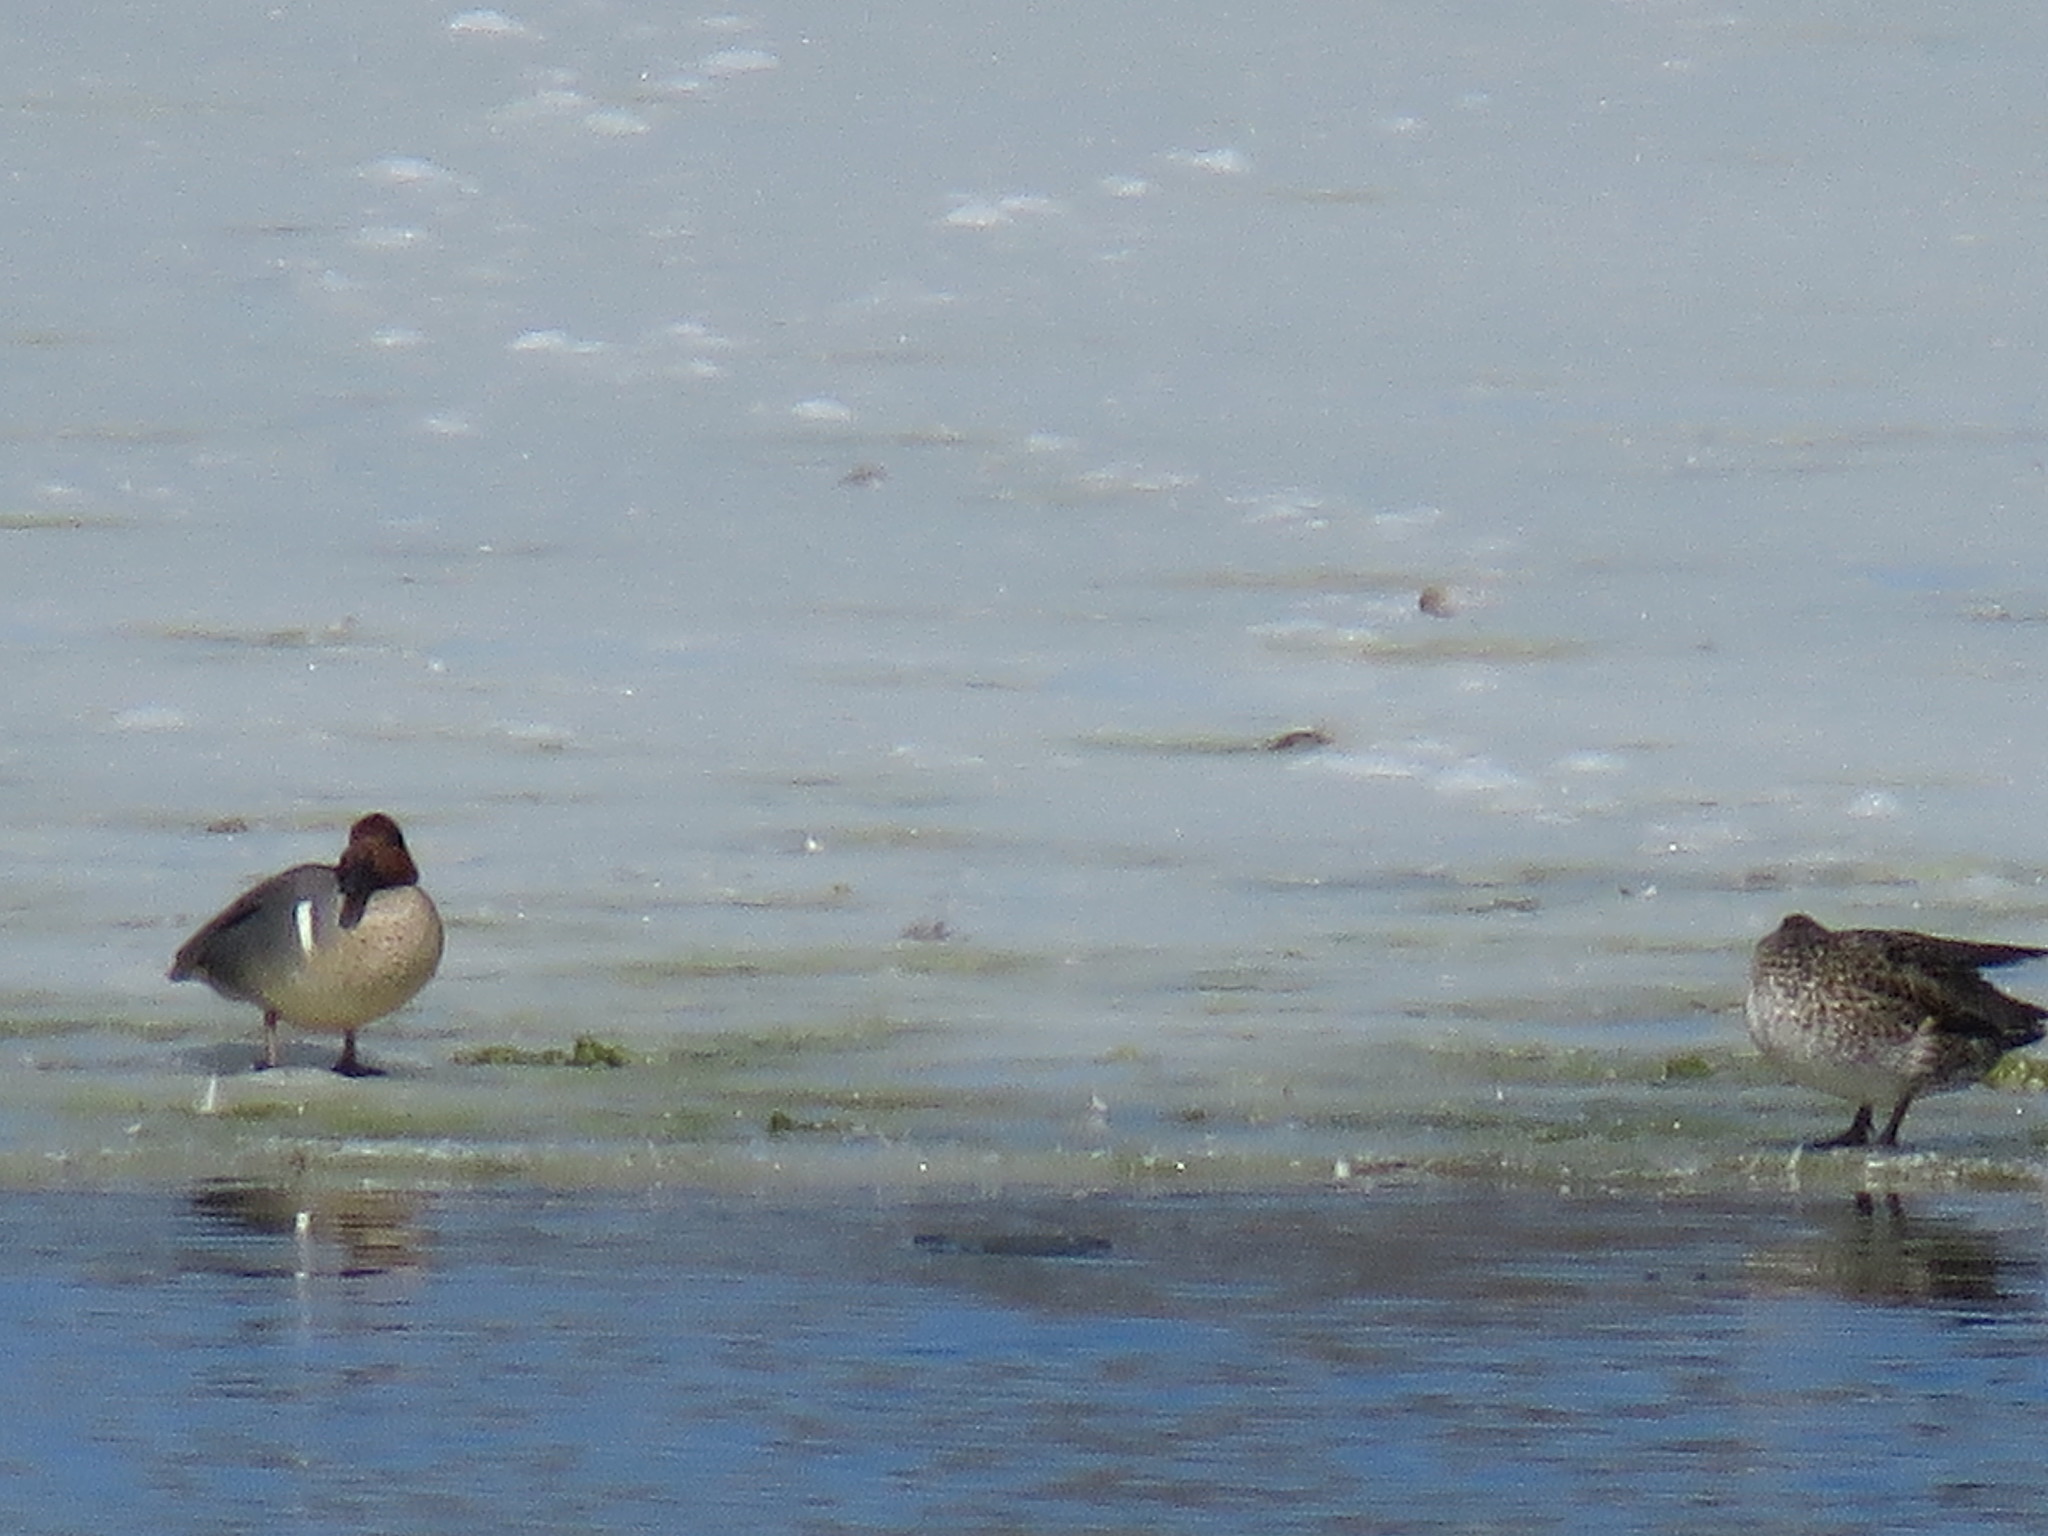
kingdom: Animalia
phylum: Chordata
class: Aves
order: Anseriformes
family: Anatidae
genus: Anas
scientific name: Anas crecca
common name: Eurasian teal
